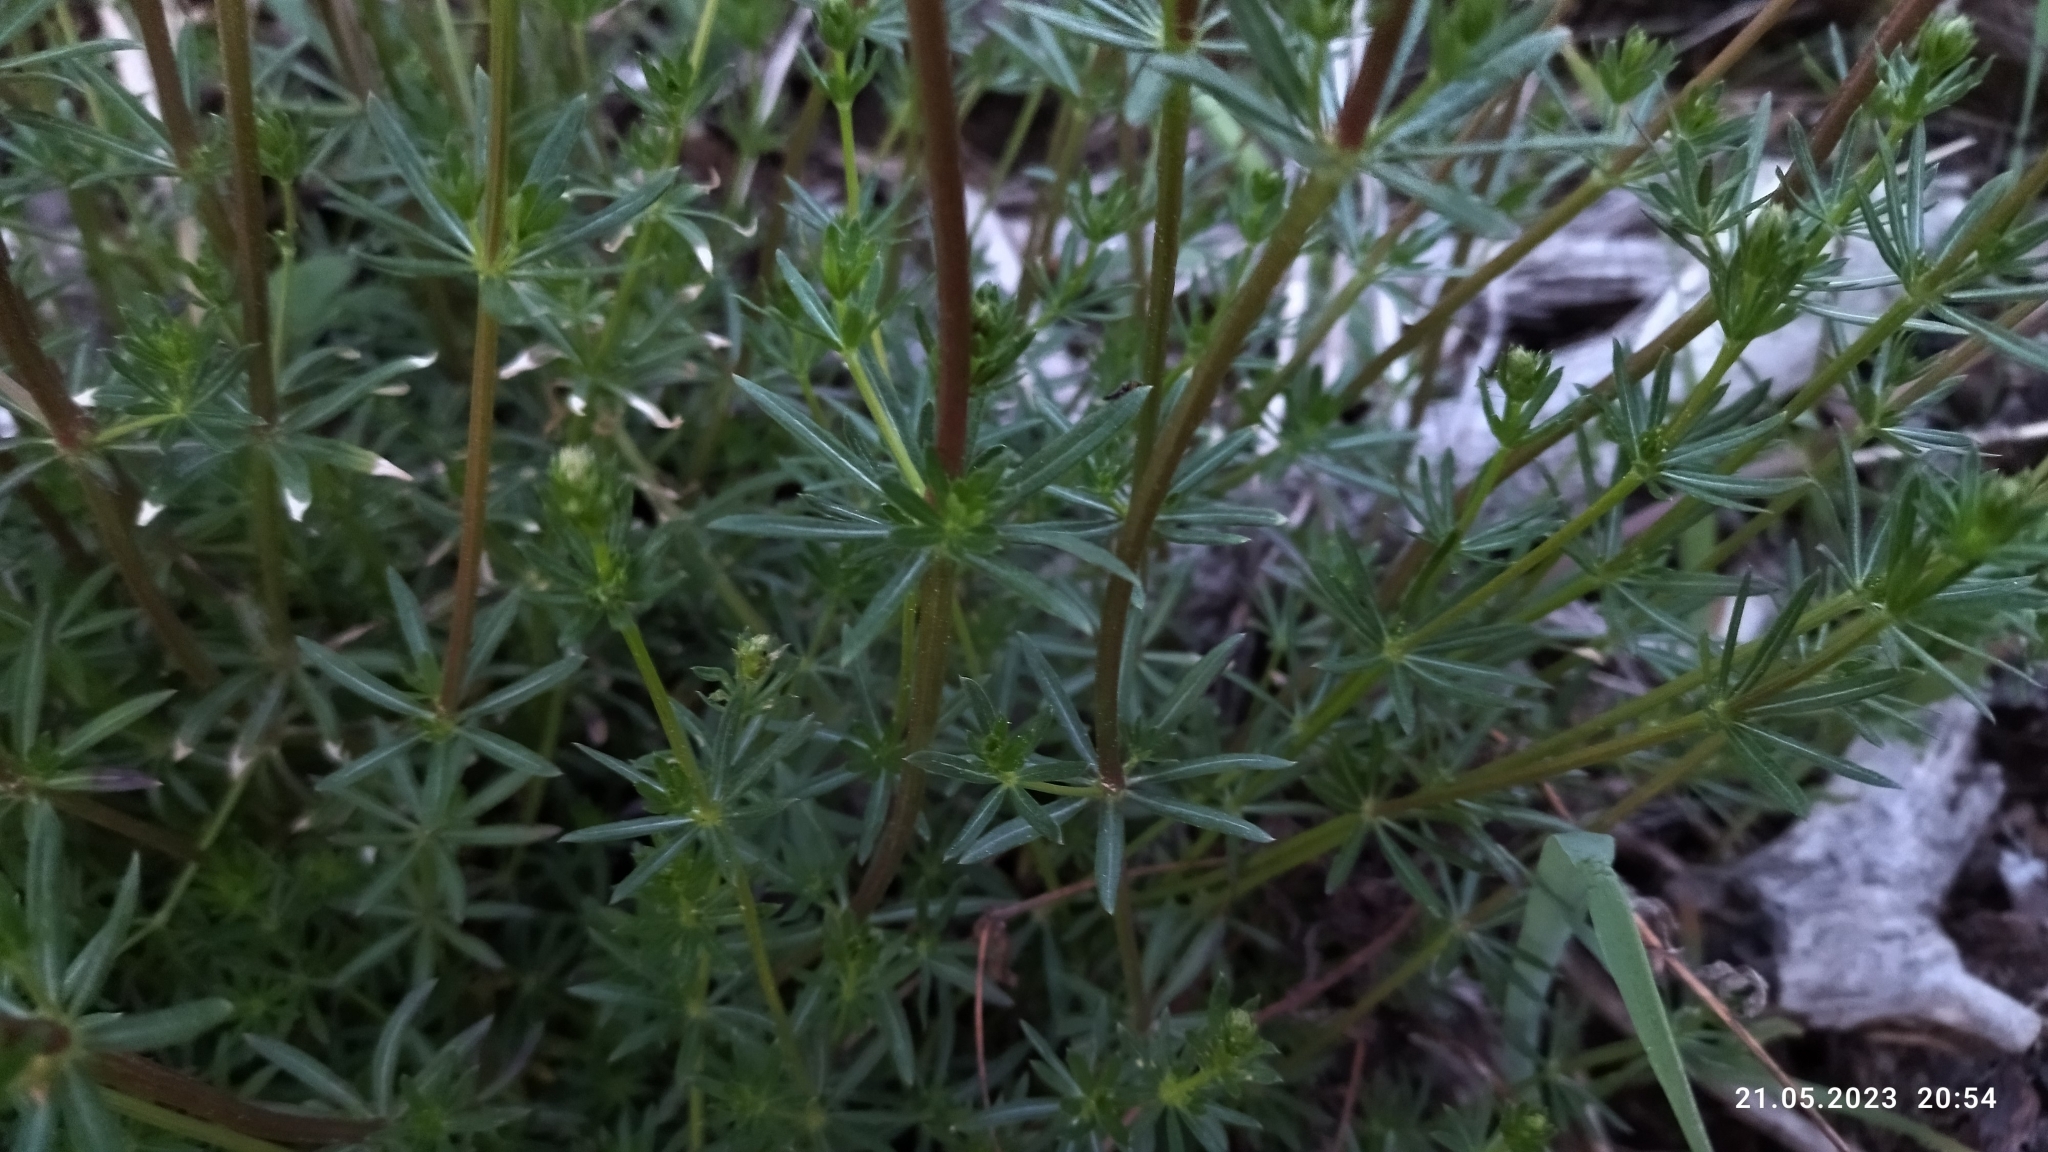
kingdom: Plantae
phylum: Tracheophyta
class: Magnoliopsida
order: Gentianales
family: Rubiaceae
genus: Galium
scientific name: Galium mollugo
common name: Hedge bedstraw
